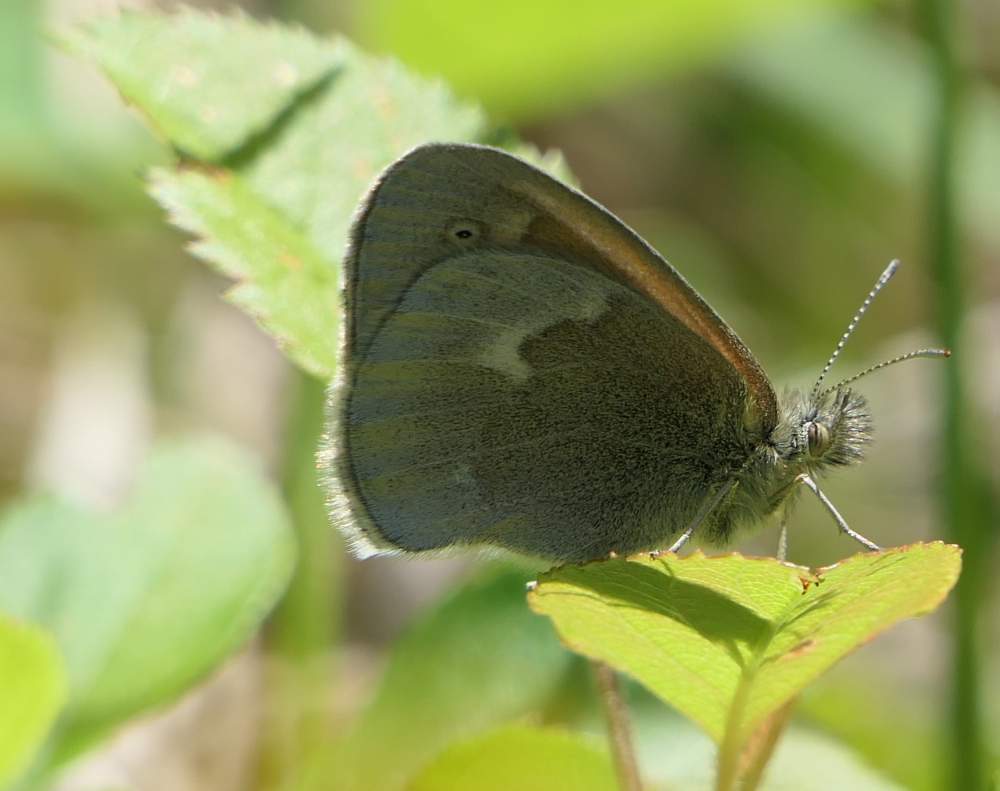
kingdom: Animalia
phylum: Arthropoda
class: Insecta
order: Lepidoptera
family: Nymphalidae
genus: Coenonympha
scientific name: Coenonympha california
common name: Common ringlet
